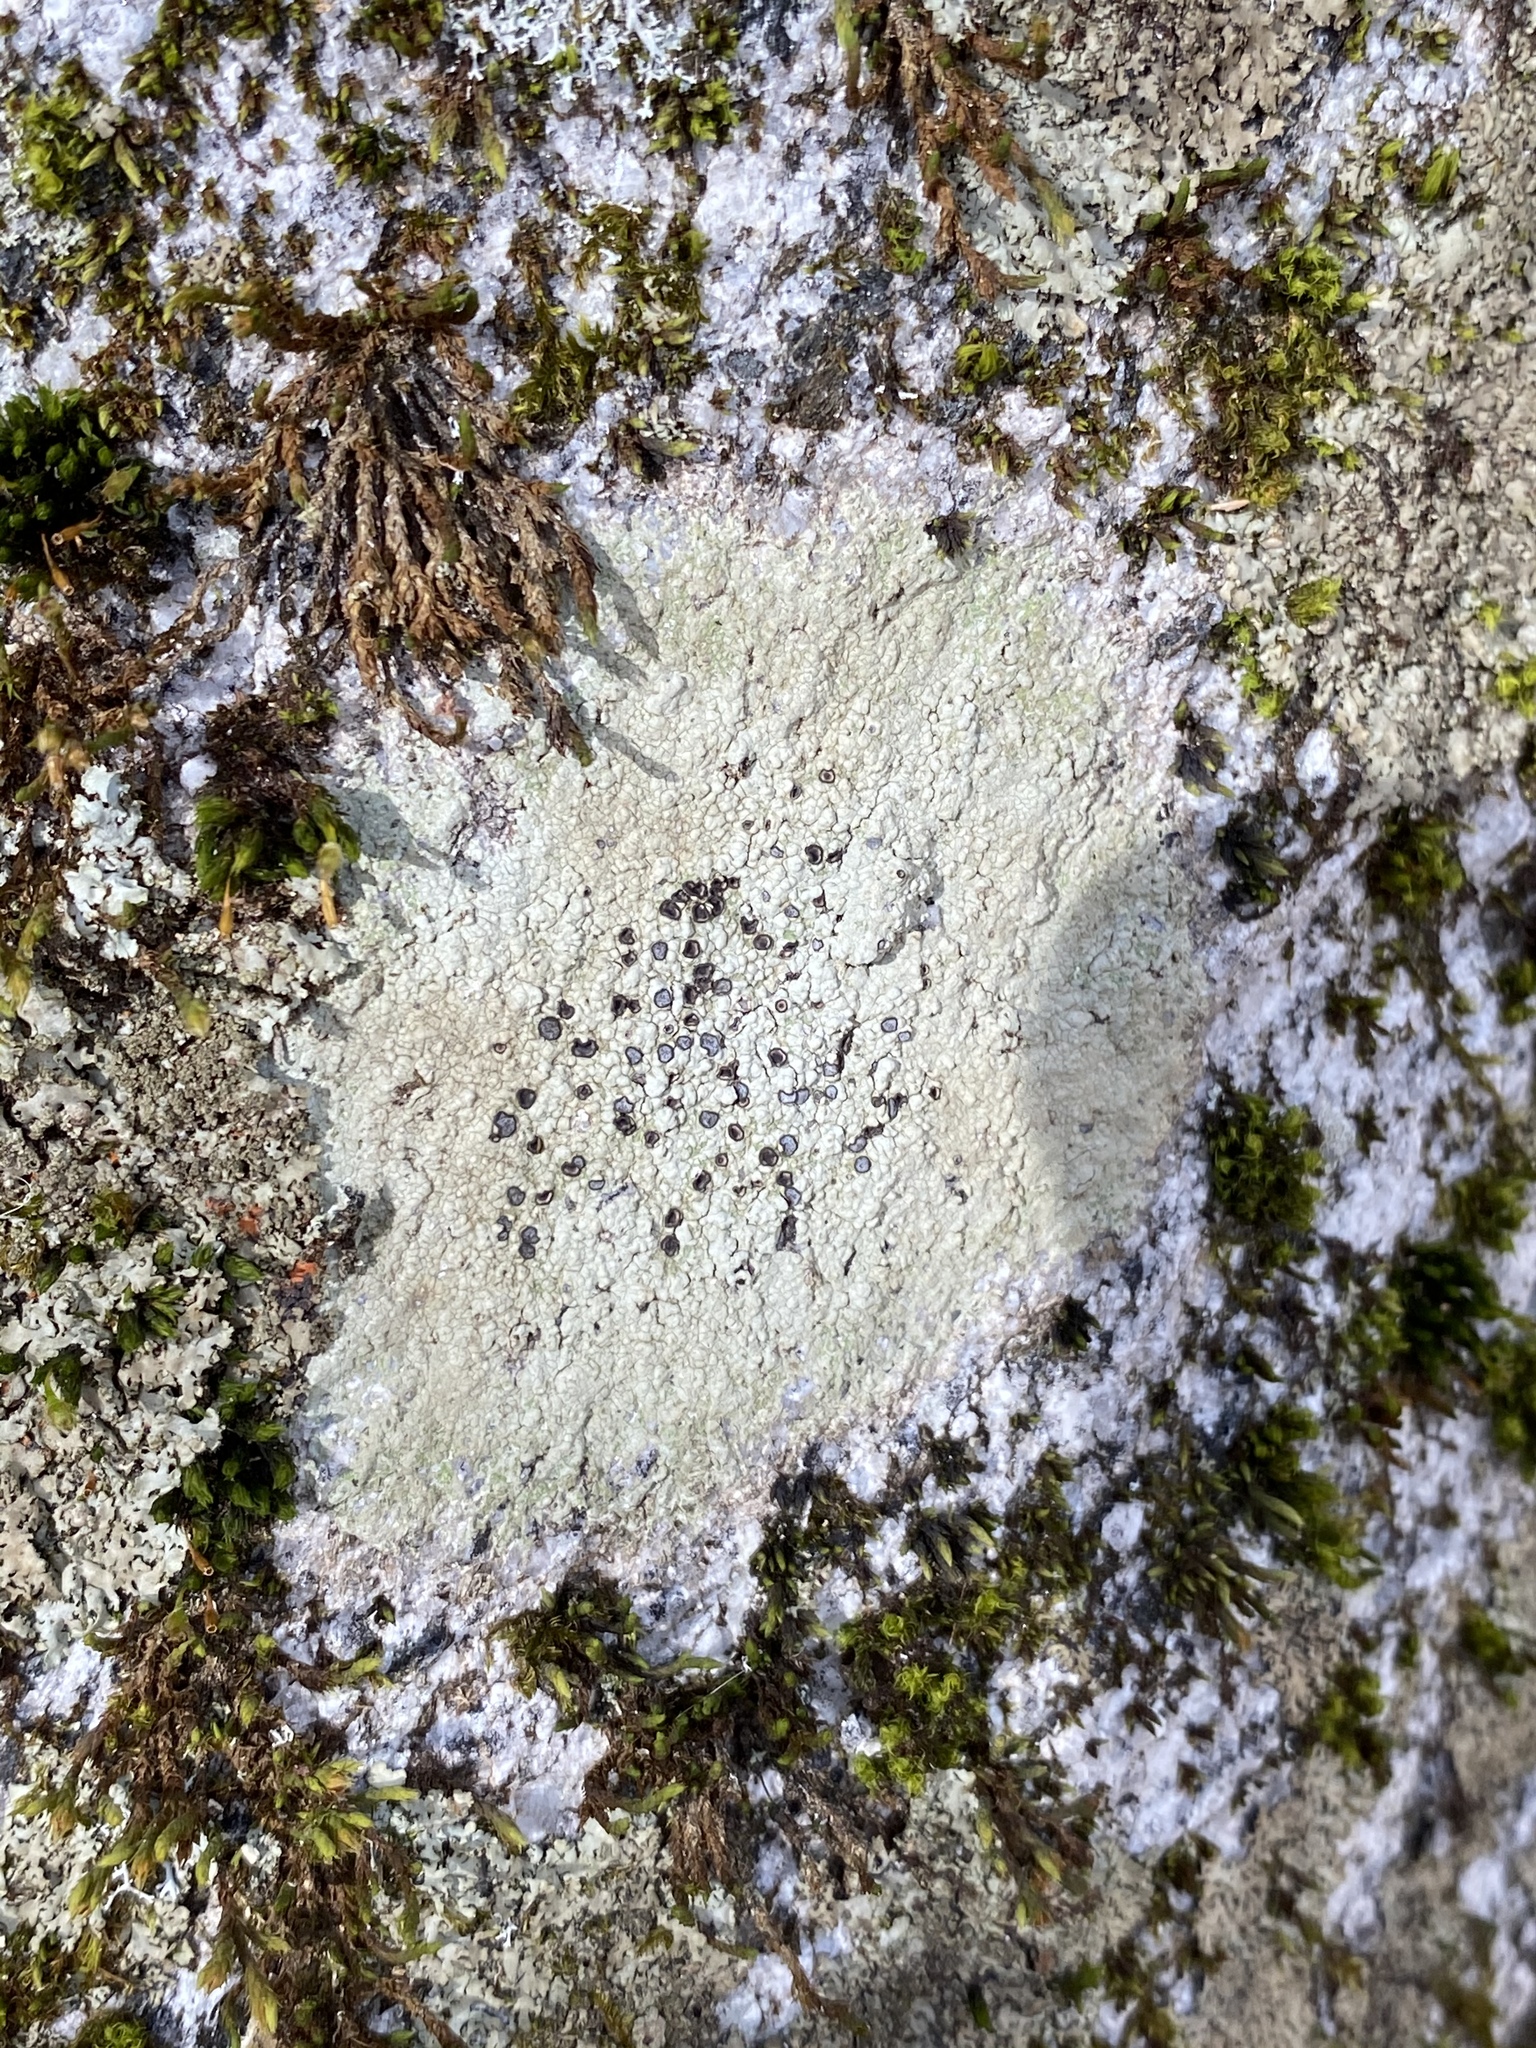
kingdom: Fungi
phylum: Ascomycota
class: Lecanoromycetes
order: Lecideales
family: Lecideaceae
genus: Porpidia
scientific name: Porpidia albocaerulescens
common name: Smokey-eyed boulder lichen
